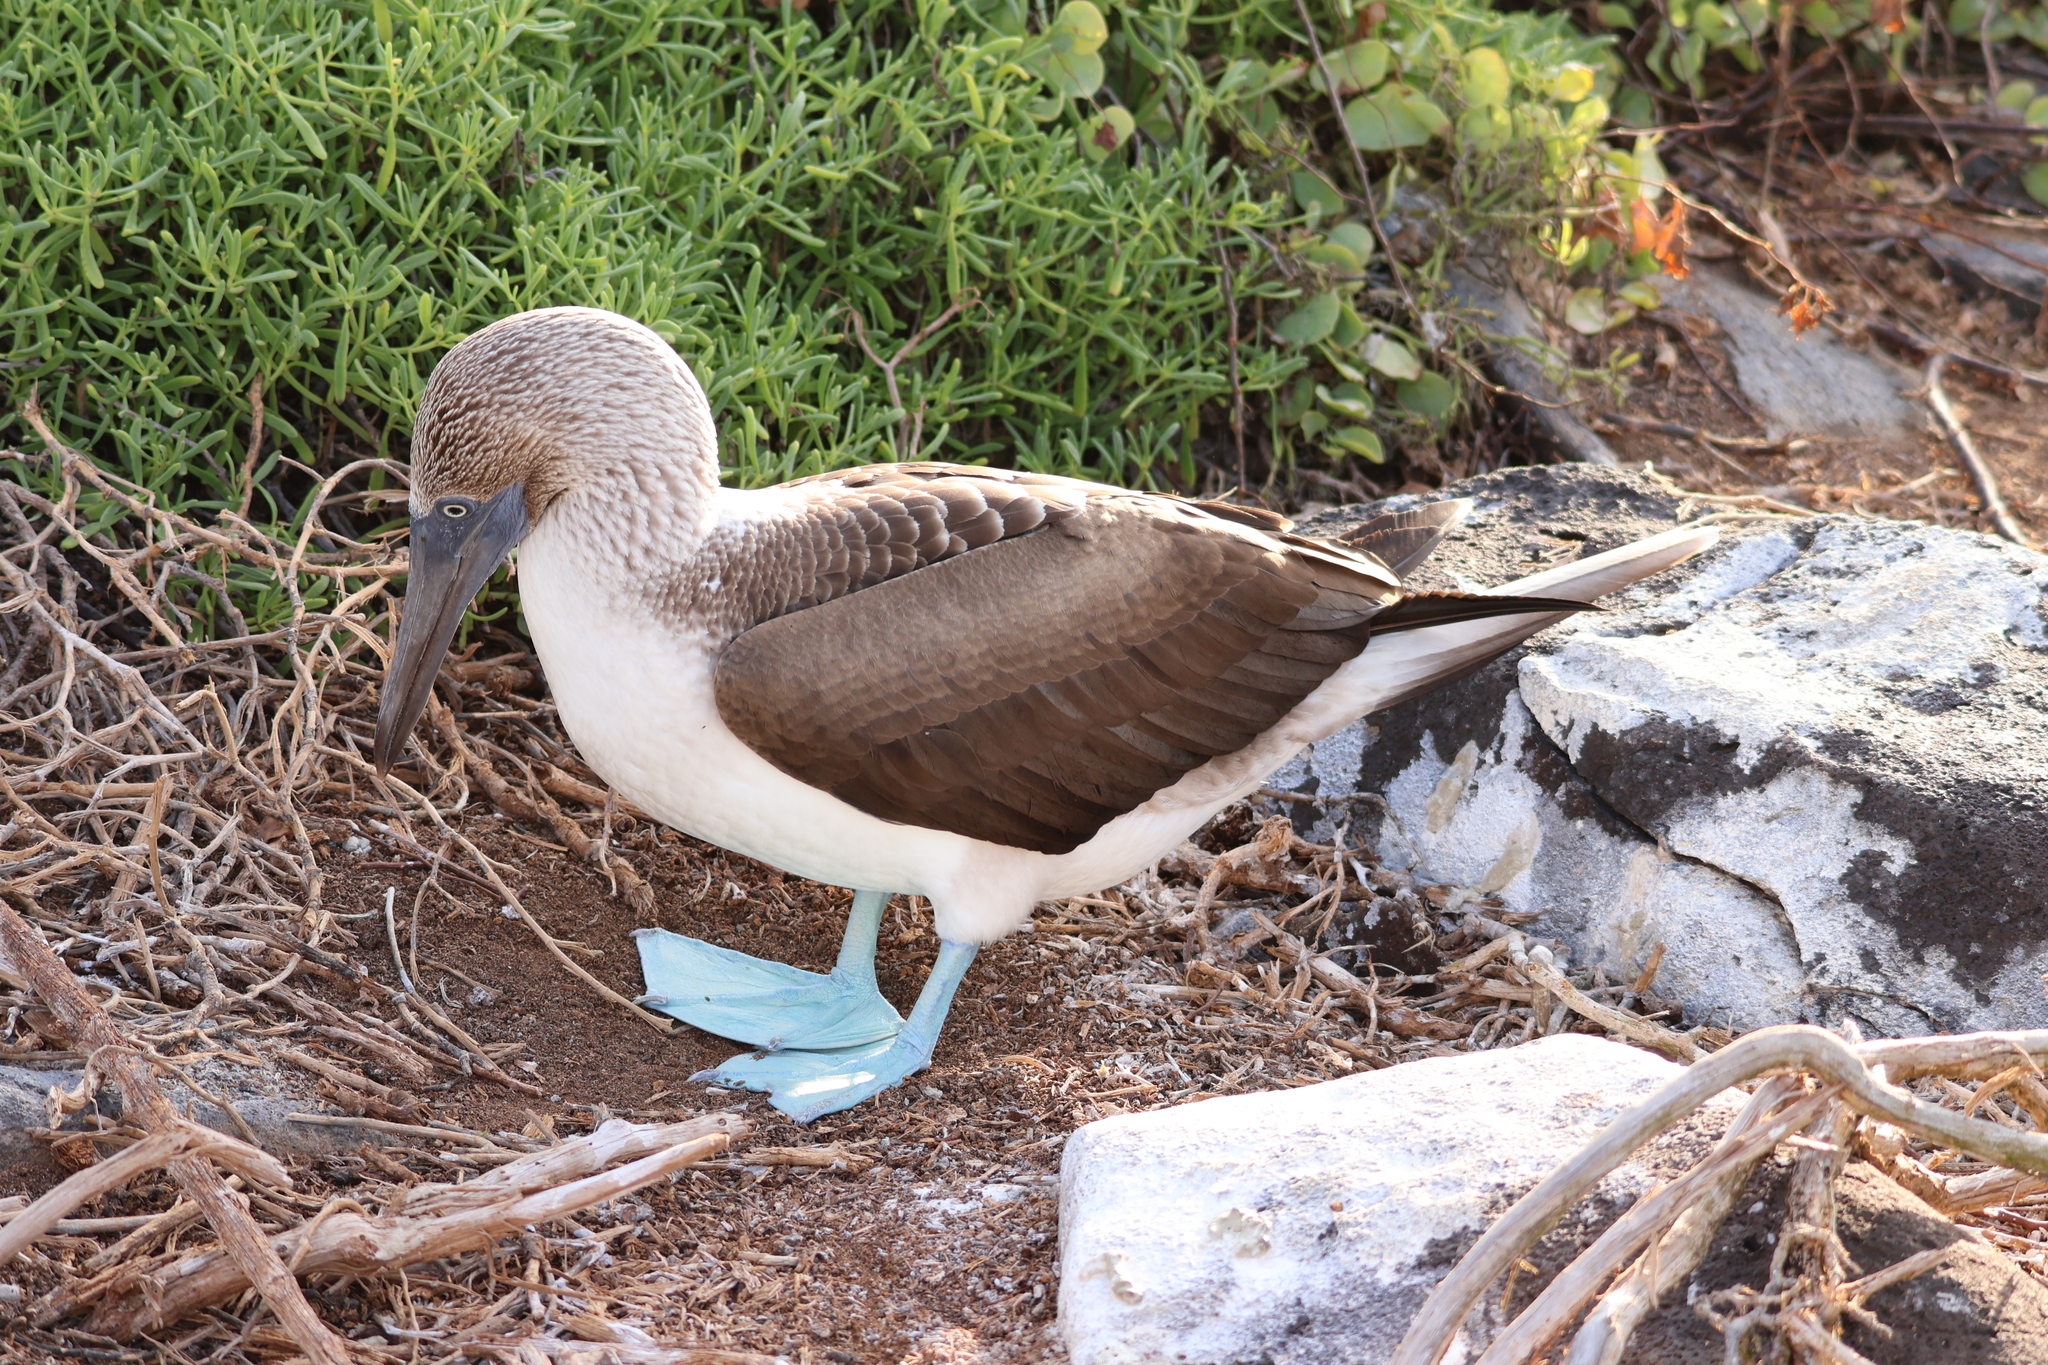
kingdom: Animalia
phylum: Chordata
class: Aves
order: Suliformes
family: Sulidae
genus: Sula
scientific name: Sula nebouxii
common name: Blue-footed booby
